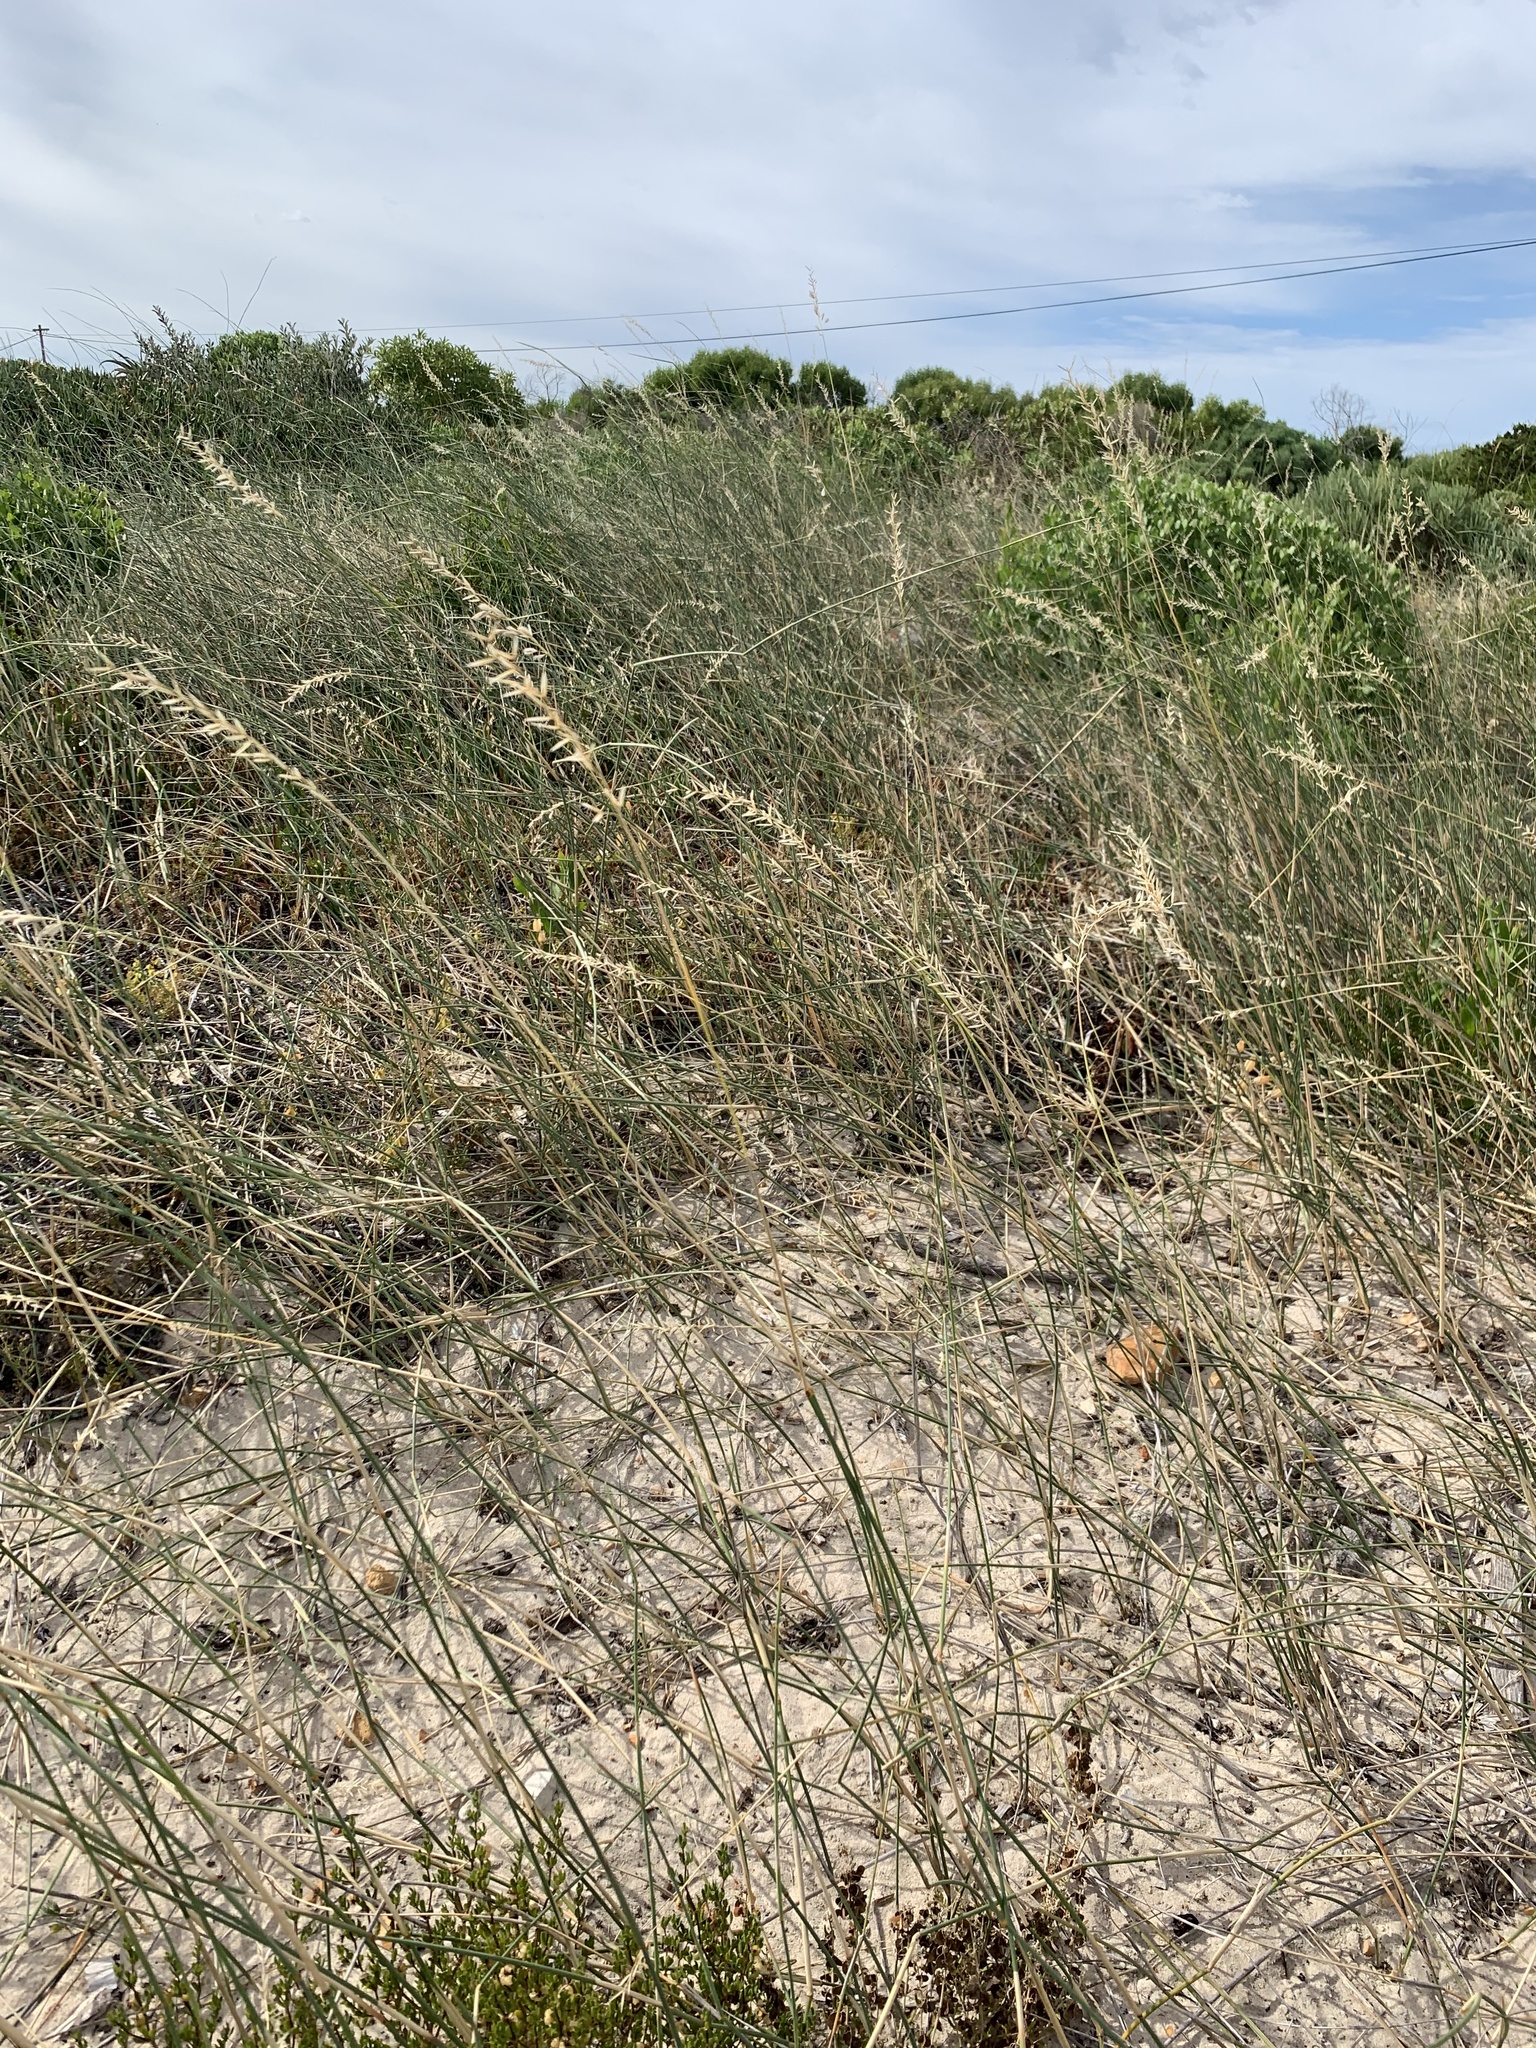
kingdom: Plantae
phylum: Tracheophyta
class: Liliopsida
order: Poales
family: Poaceae
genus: Ehrharta
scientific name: Ehrharta villosa
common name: Pyp grass
